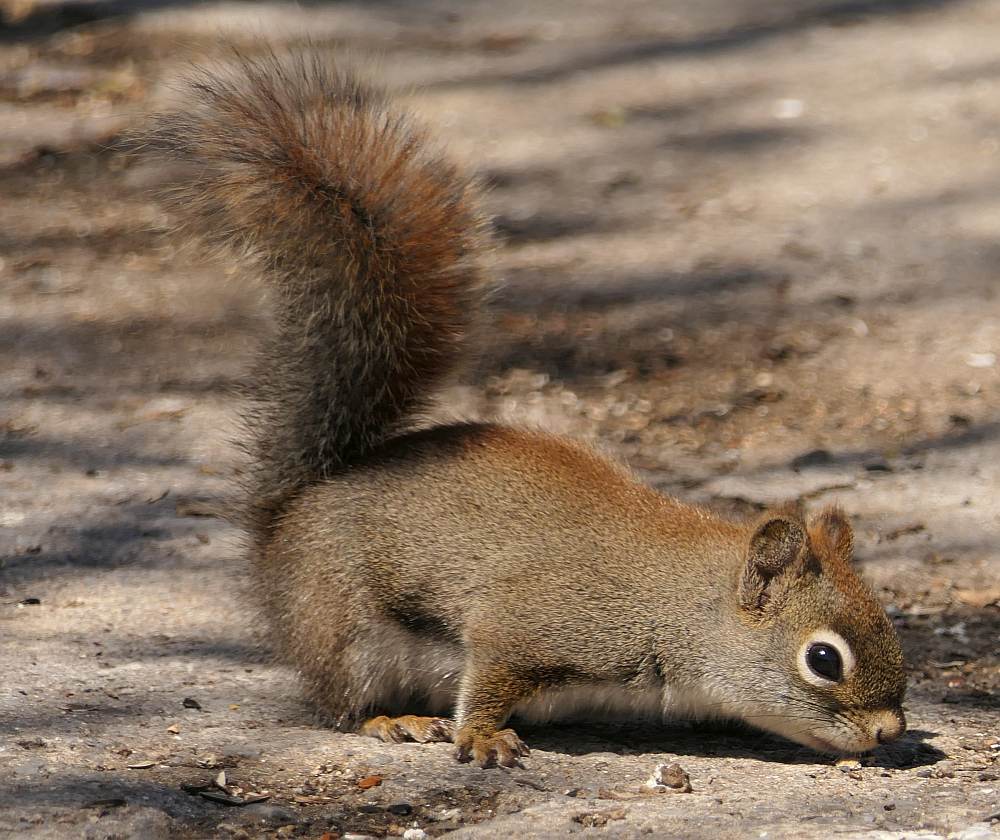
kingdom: Animalia
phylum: Chordata
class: Mammalia
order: Rodentia
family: Sciuridae
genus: Tamiasciurus
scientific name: Tamiasciurus hudsonicus
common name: Red squirrel
